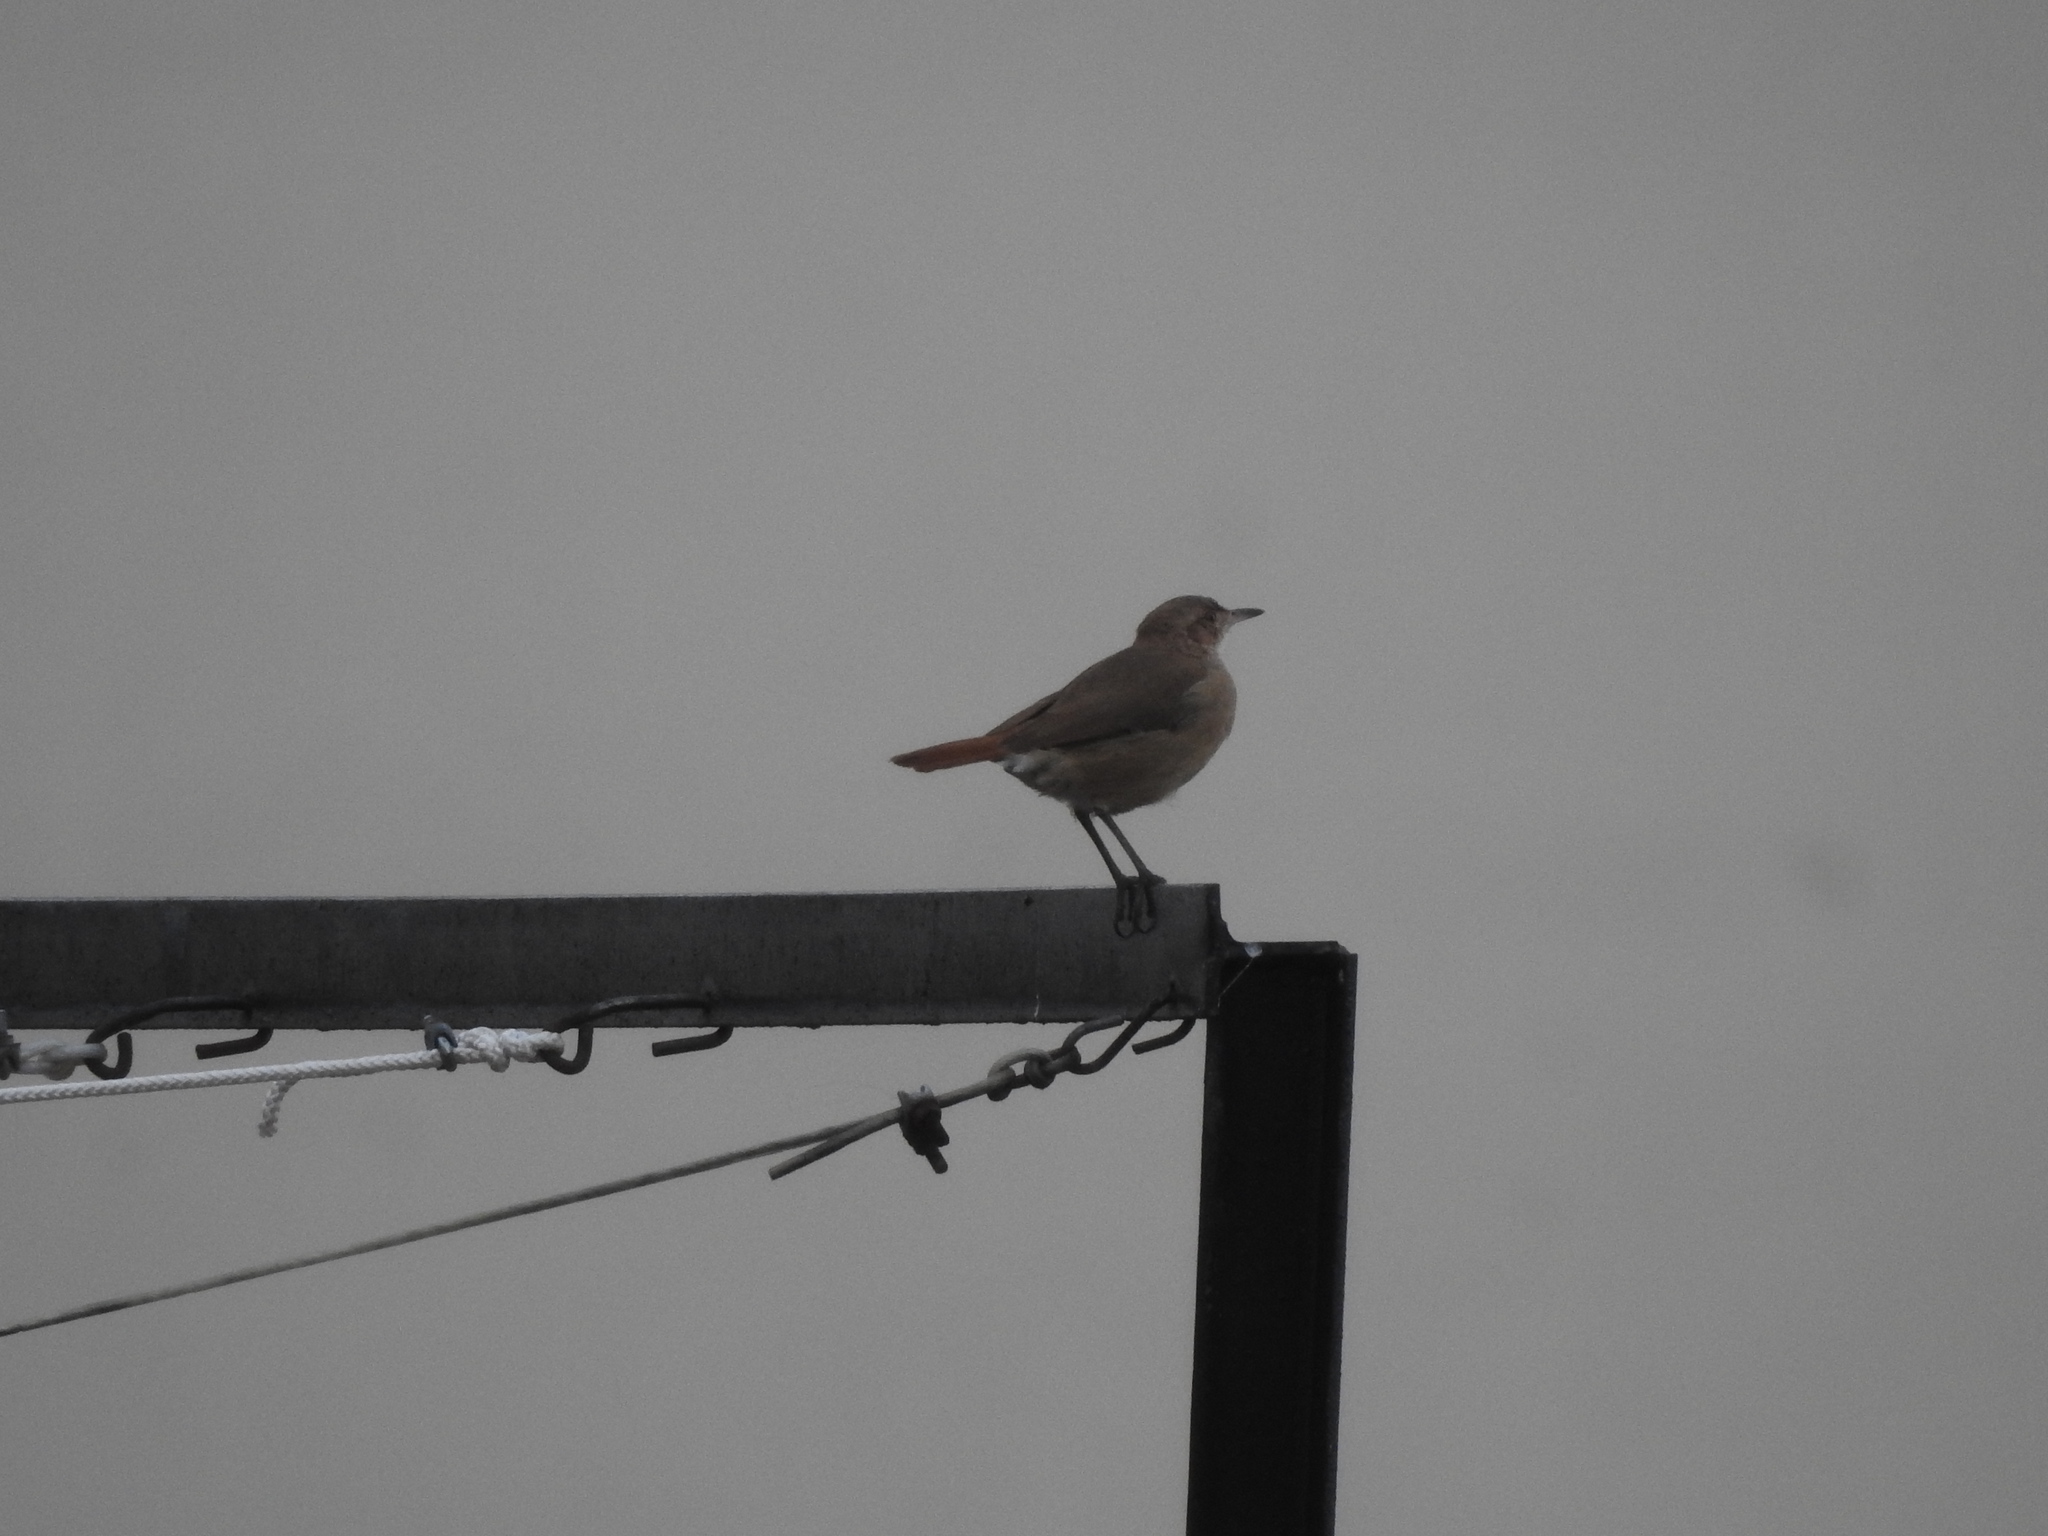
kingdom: Animalia
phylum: Chordata
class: Aves
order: Passeriformes
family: Furnariidae
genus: Furnarius
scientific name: Furnarius rufus
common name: Rufous hornero
